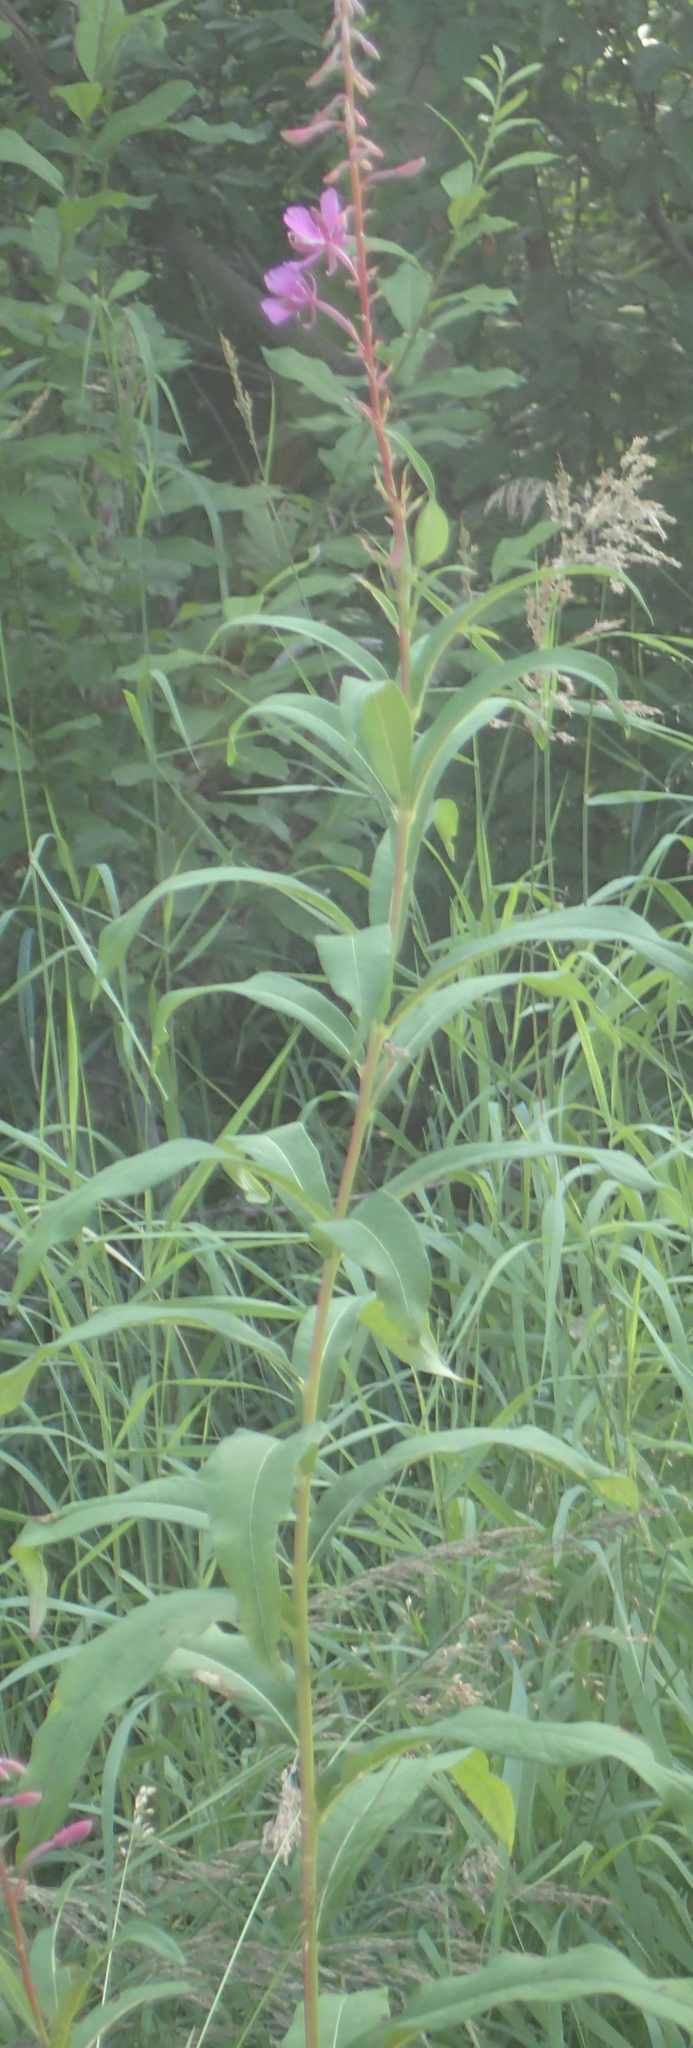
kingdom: Plantae
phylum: Tracheophyta
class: Magnoliopsida
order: Myrtales
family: Onagraceae
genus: Chamaenerion
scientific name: Chamaenerion angustifolium
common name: Fireweed
